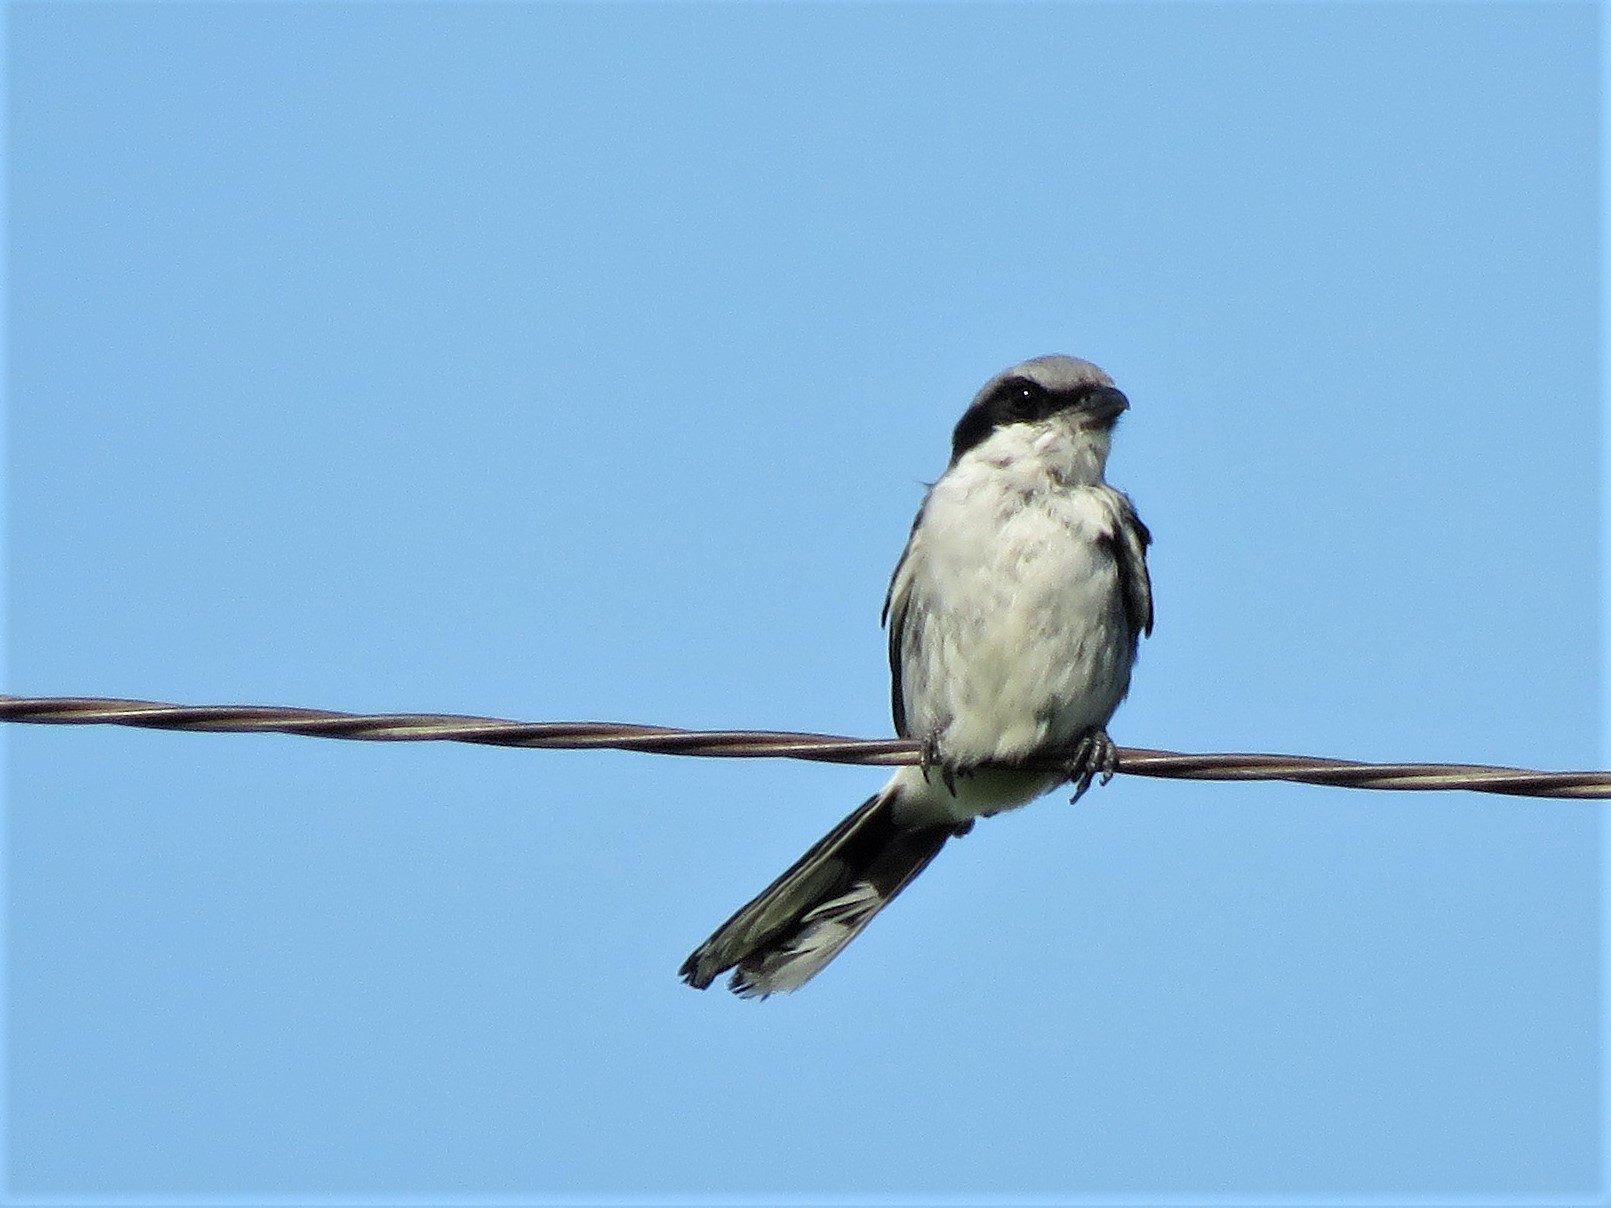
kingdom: Animalia
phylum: Chordata
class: Aves
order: Passeriformes
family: Laniidae
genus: Lanius
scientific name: Lanius ludovicianus
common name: Loggerhead shrike
